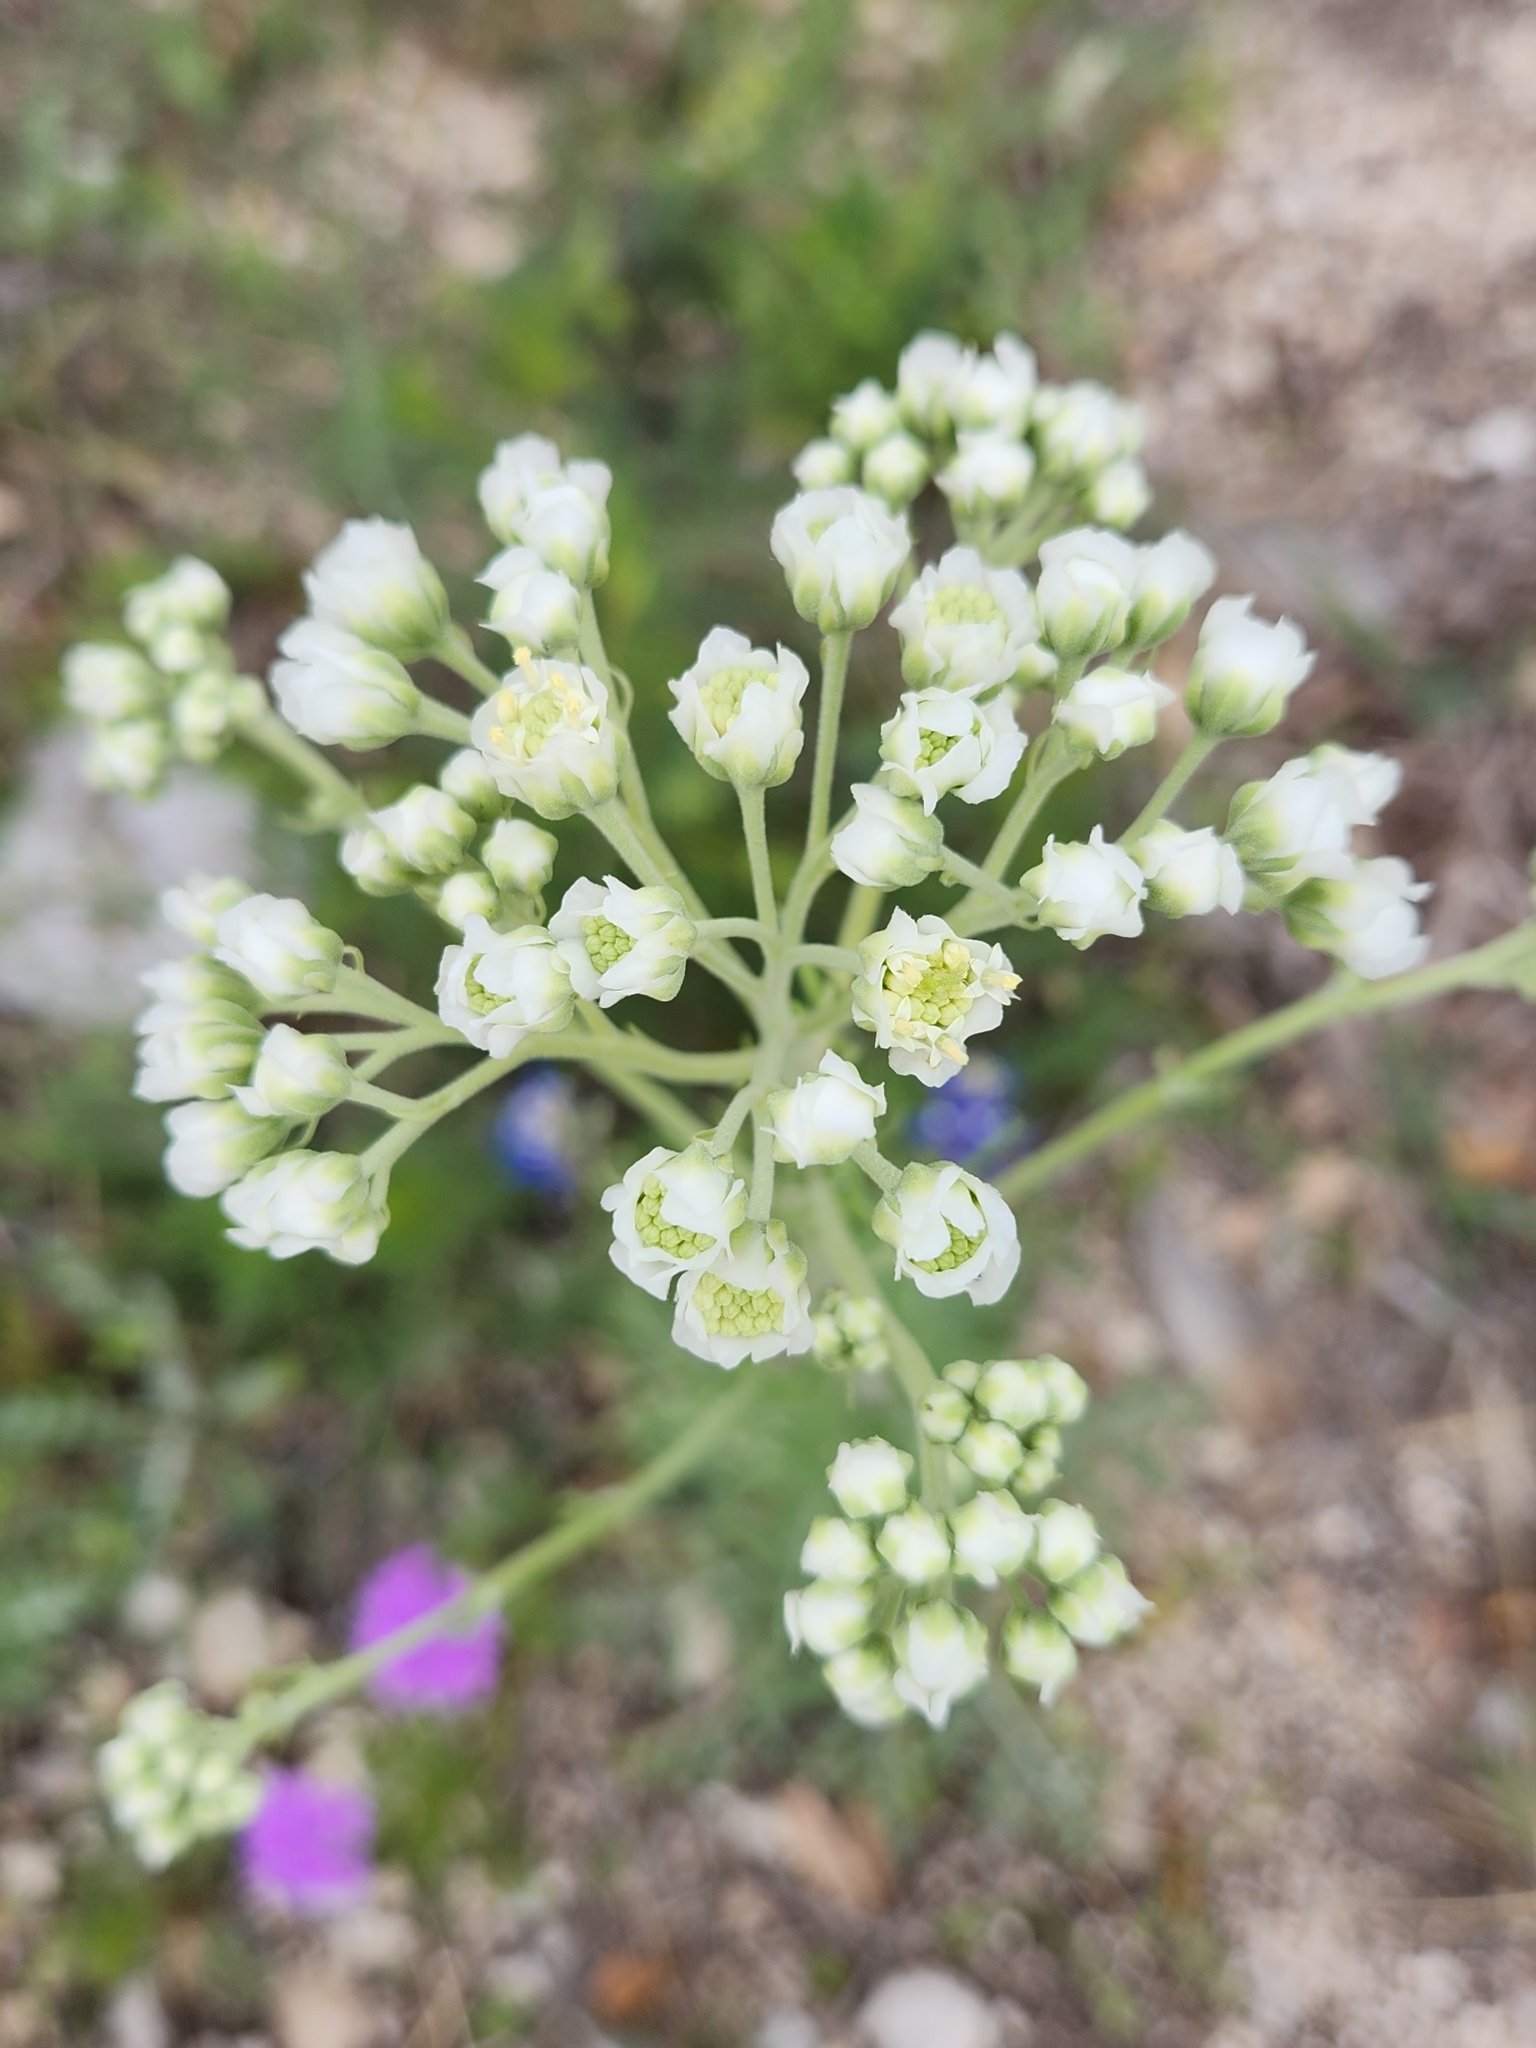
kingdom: Plantae
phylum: Tracheophyta
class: Magnoliopsida
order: Asterales
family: Asteraceae
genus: Hymenopappus
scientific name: Hymenopappus scabiosaeus
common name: Carolina woollywhite
